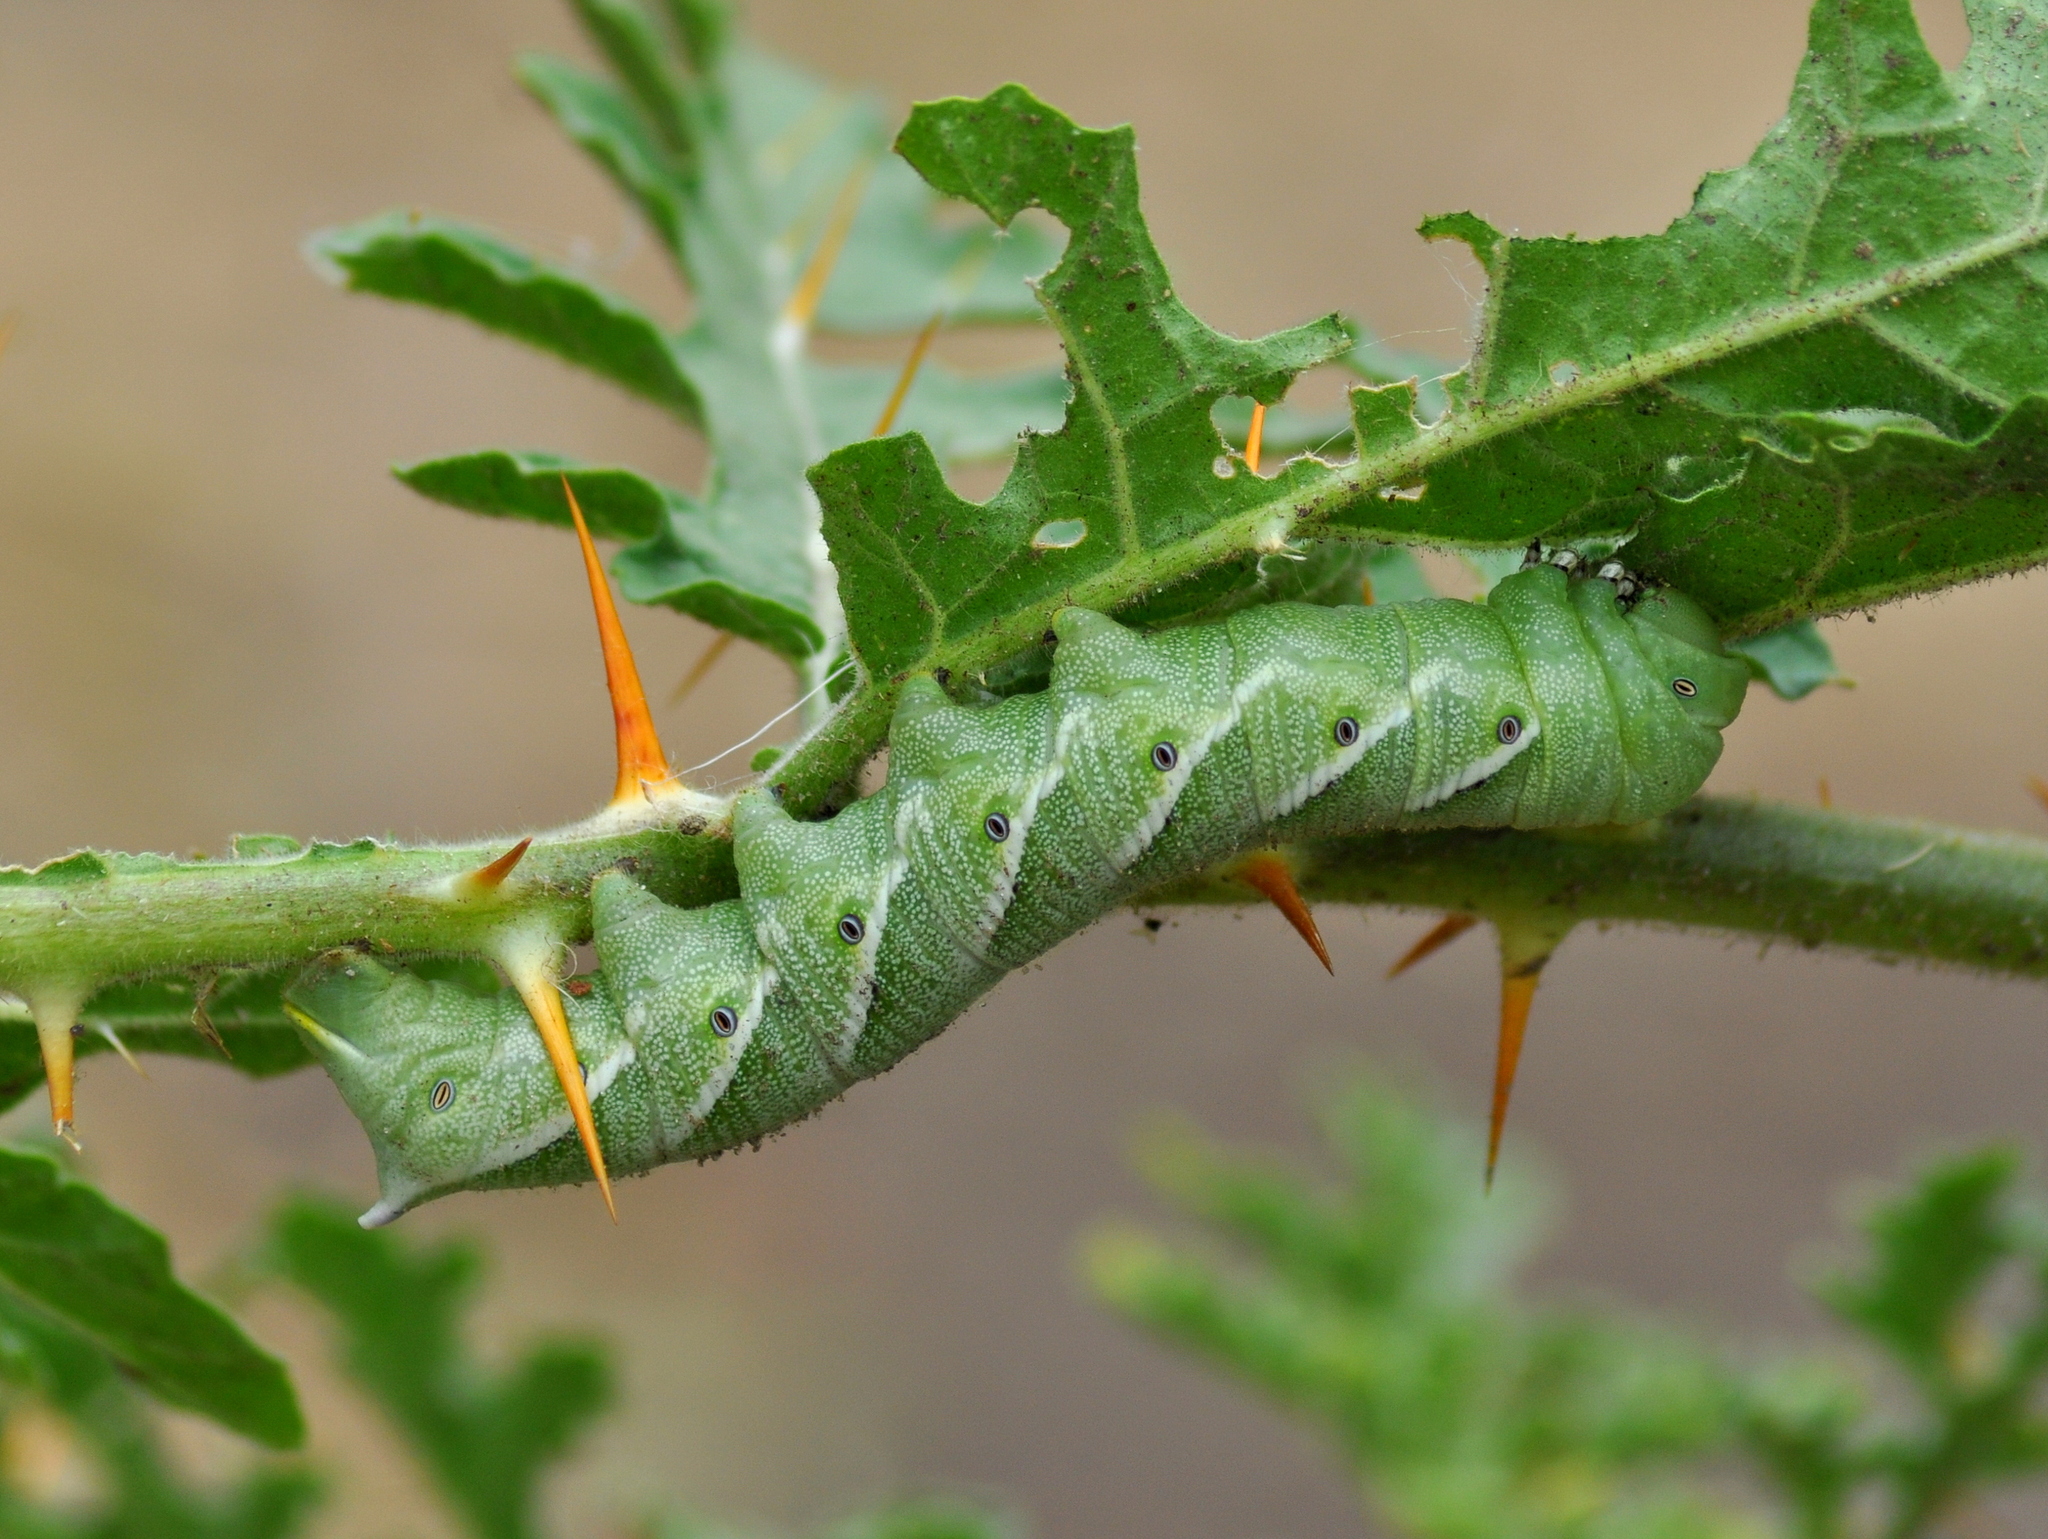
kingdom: Animalia
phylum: Arthropoda
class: Insecta
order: Lepidoptera
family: Sphingidae
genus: Manduca
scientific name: Manduca afflicta
